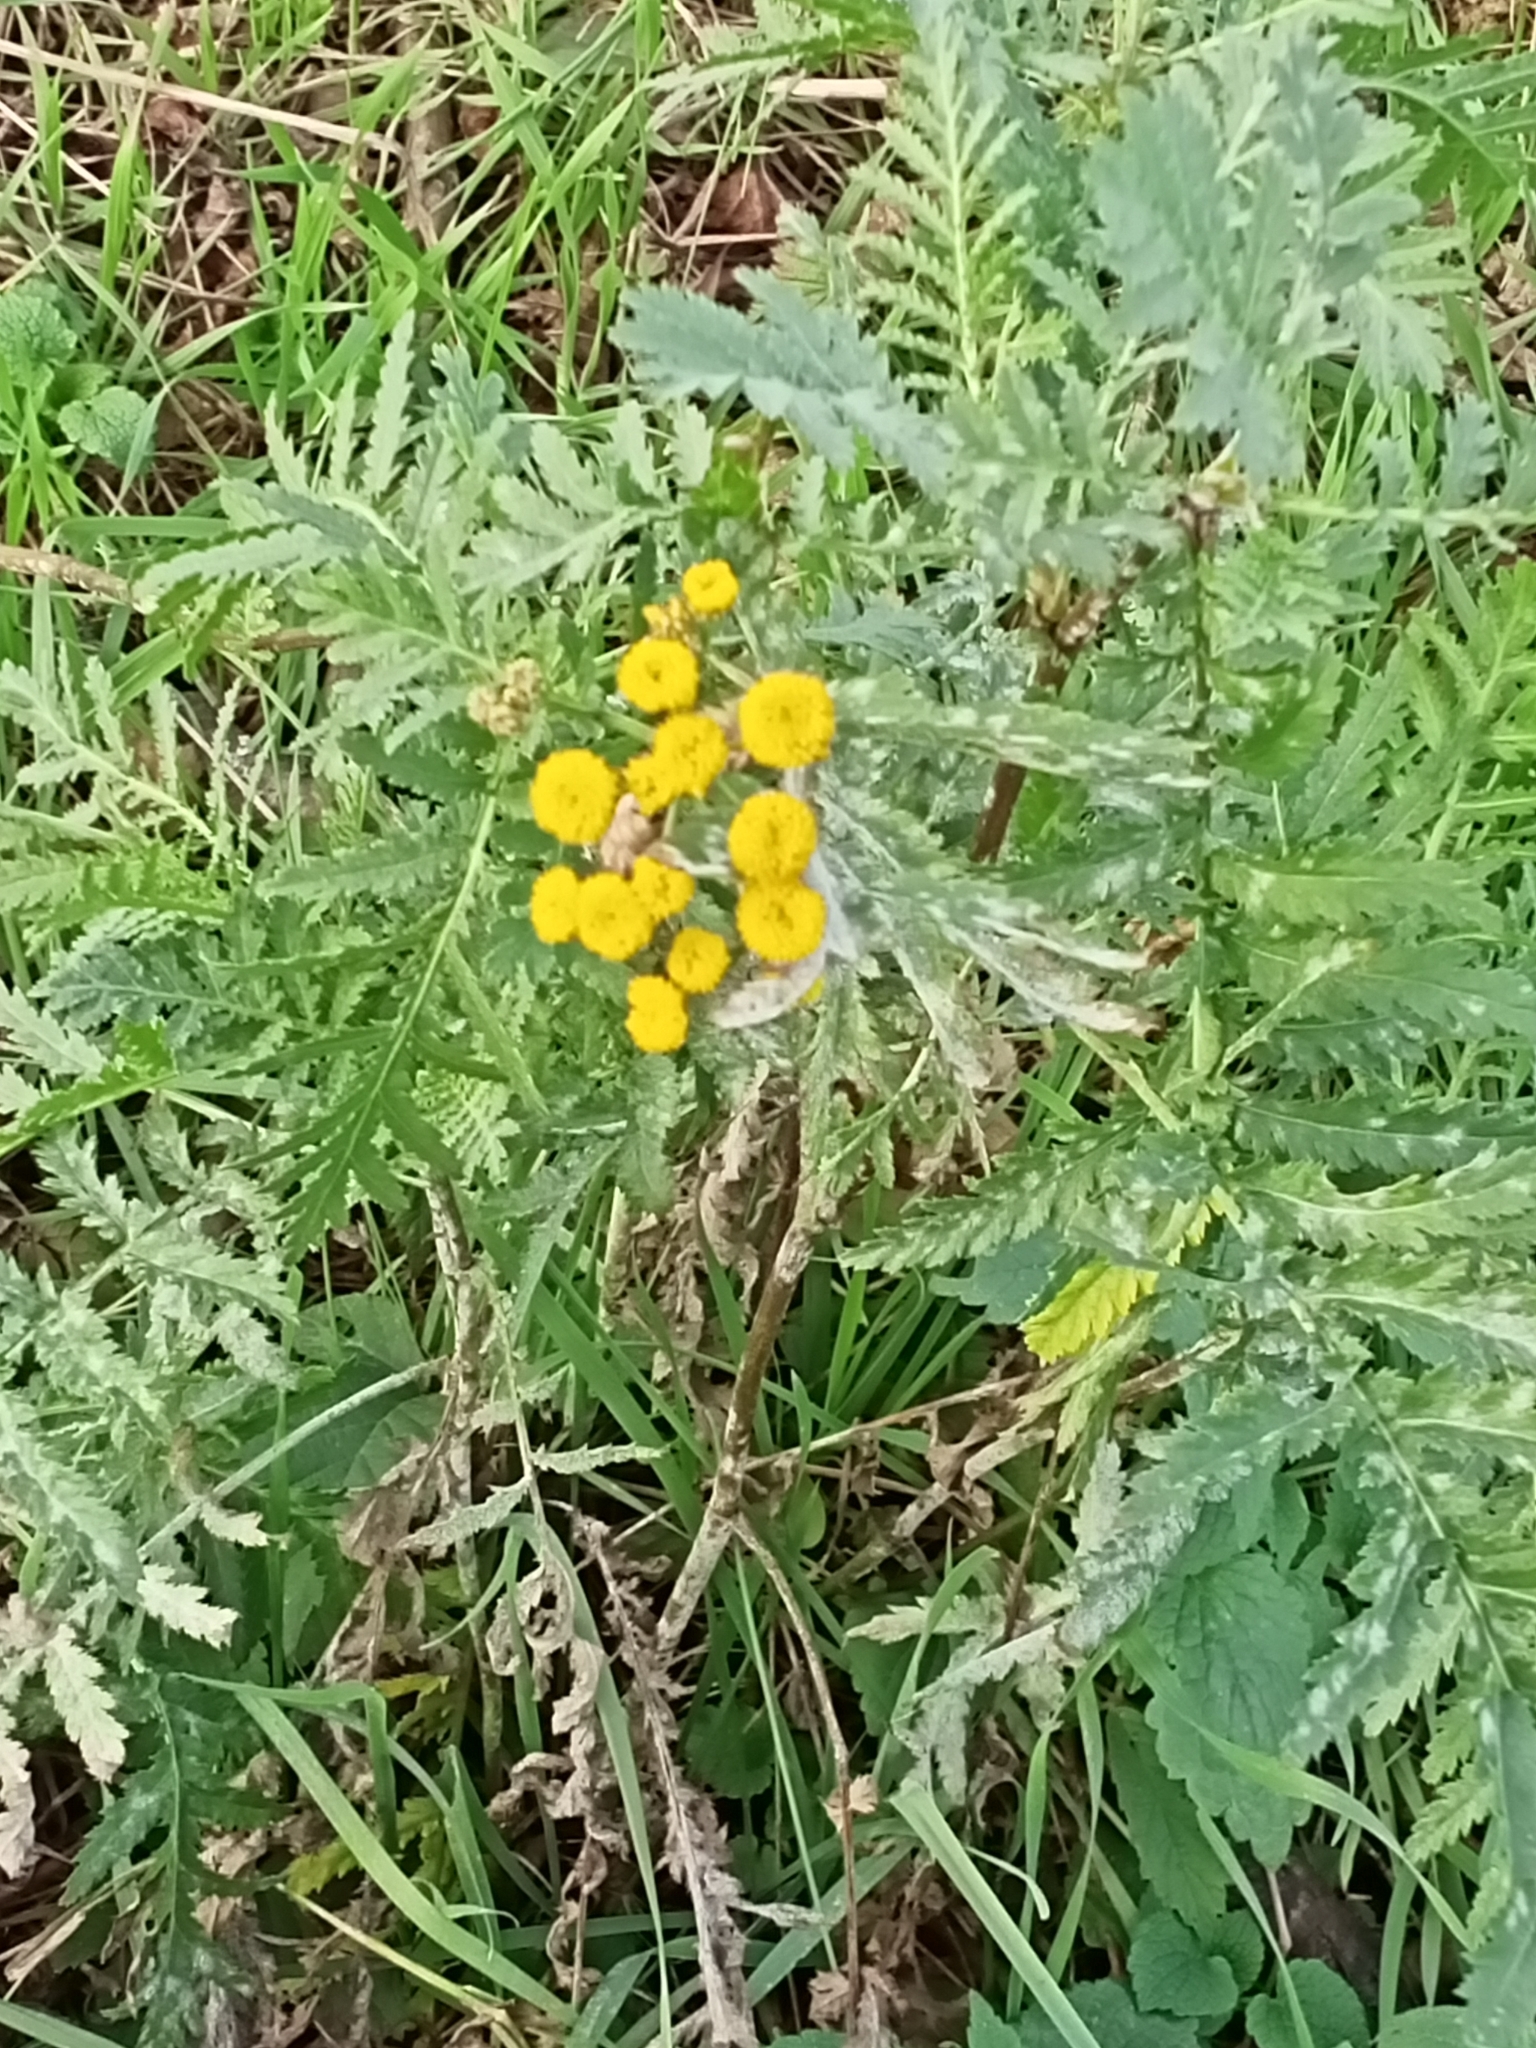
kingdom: Plantae
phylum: Tracheophyta
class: Magnoliopsida
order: Asterales
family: Asteraceae
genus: Tanacetum
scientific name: Tanacetum vulgare
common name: Common tansy
